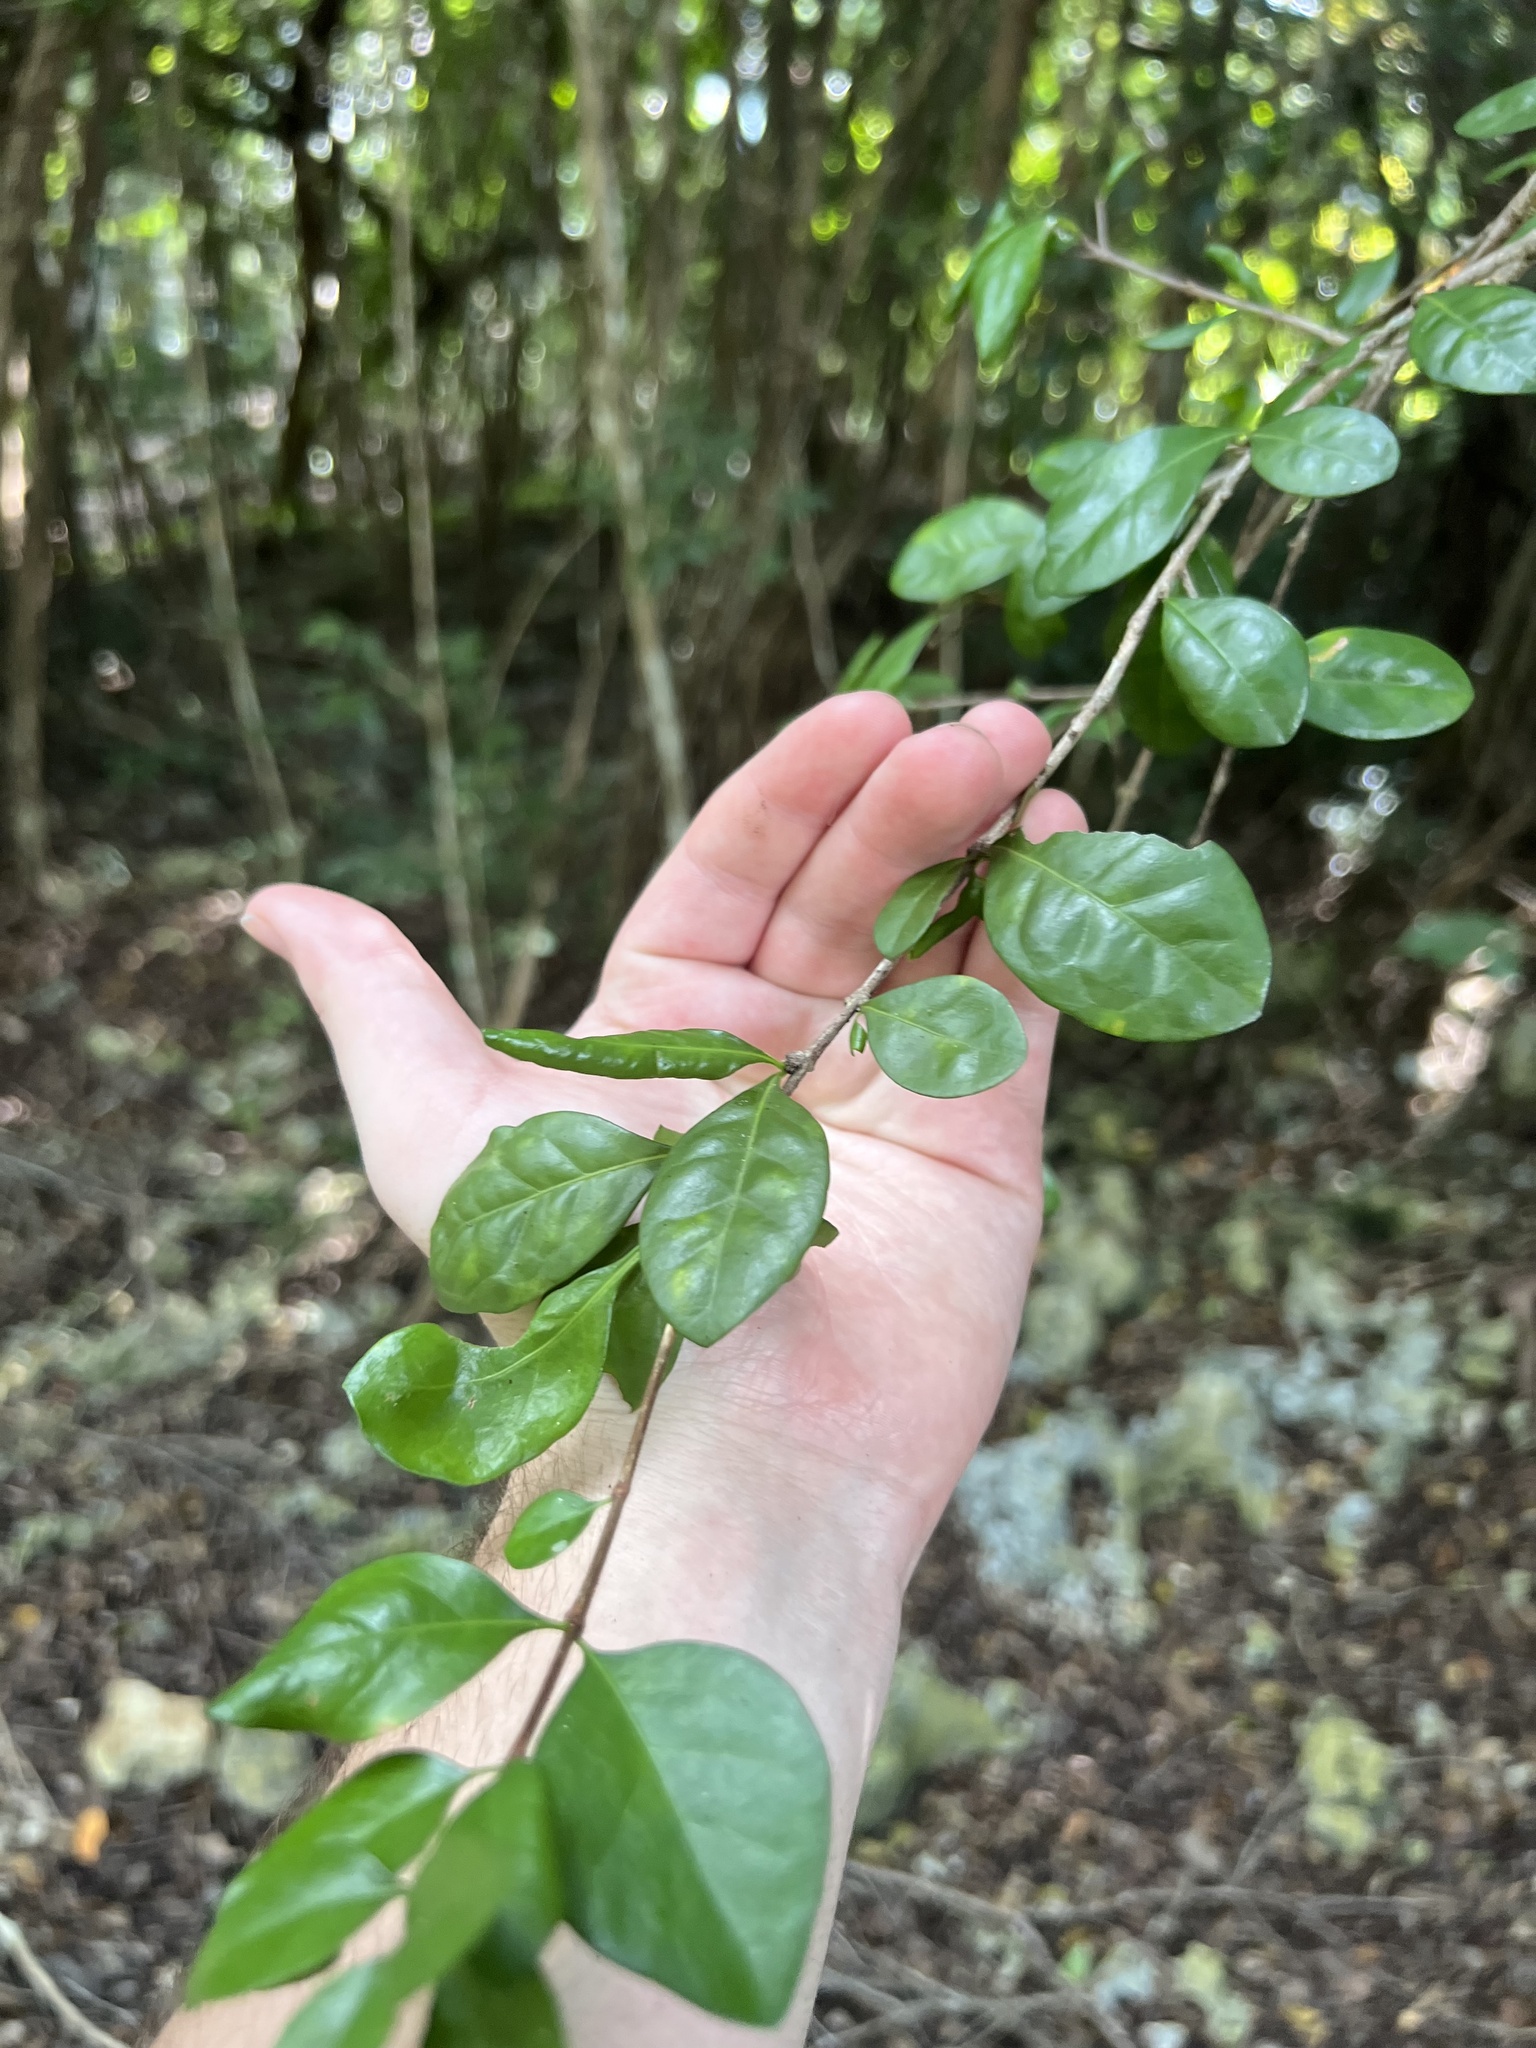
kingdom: Plantae
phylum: Tracheophyta
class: Magnoliopsida
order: Gentianales
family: Rubiaceae
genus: Randia
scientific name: Randia aculeata
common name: Inkberry
